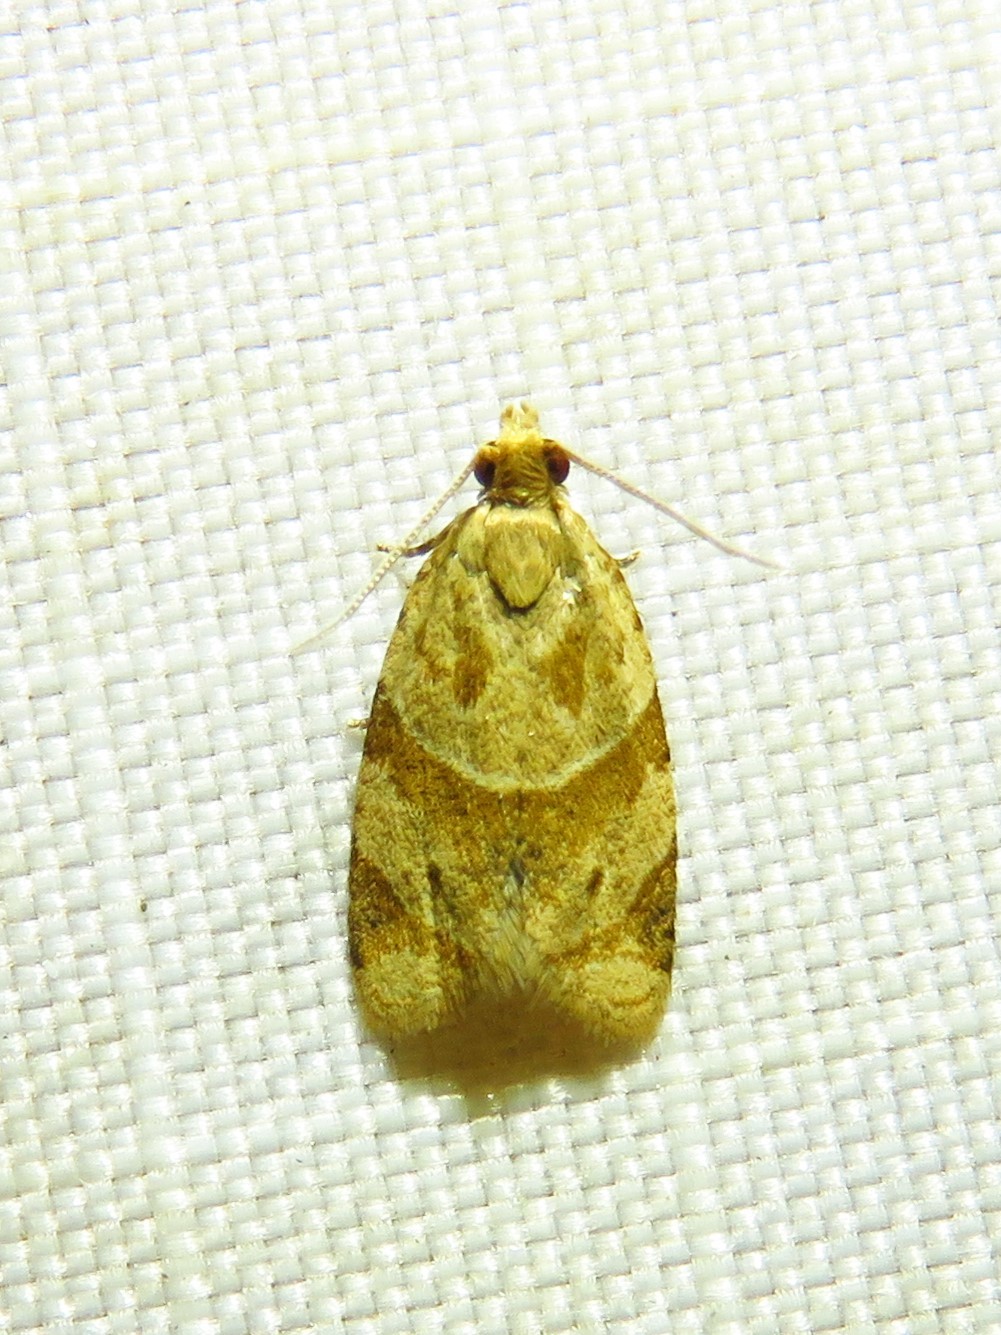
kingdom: Animalia
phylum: Arthropoda
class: Insecta
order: Lepidoptera
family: Tortricidae
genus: Clepsis
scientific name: Clepsis peritana
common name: Garden tortrix
